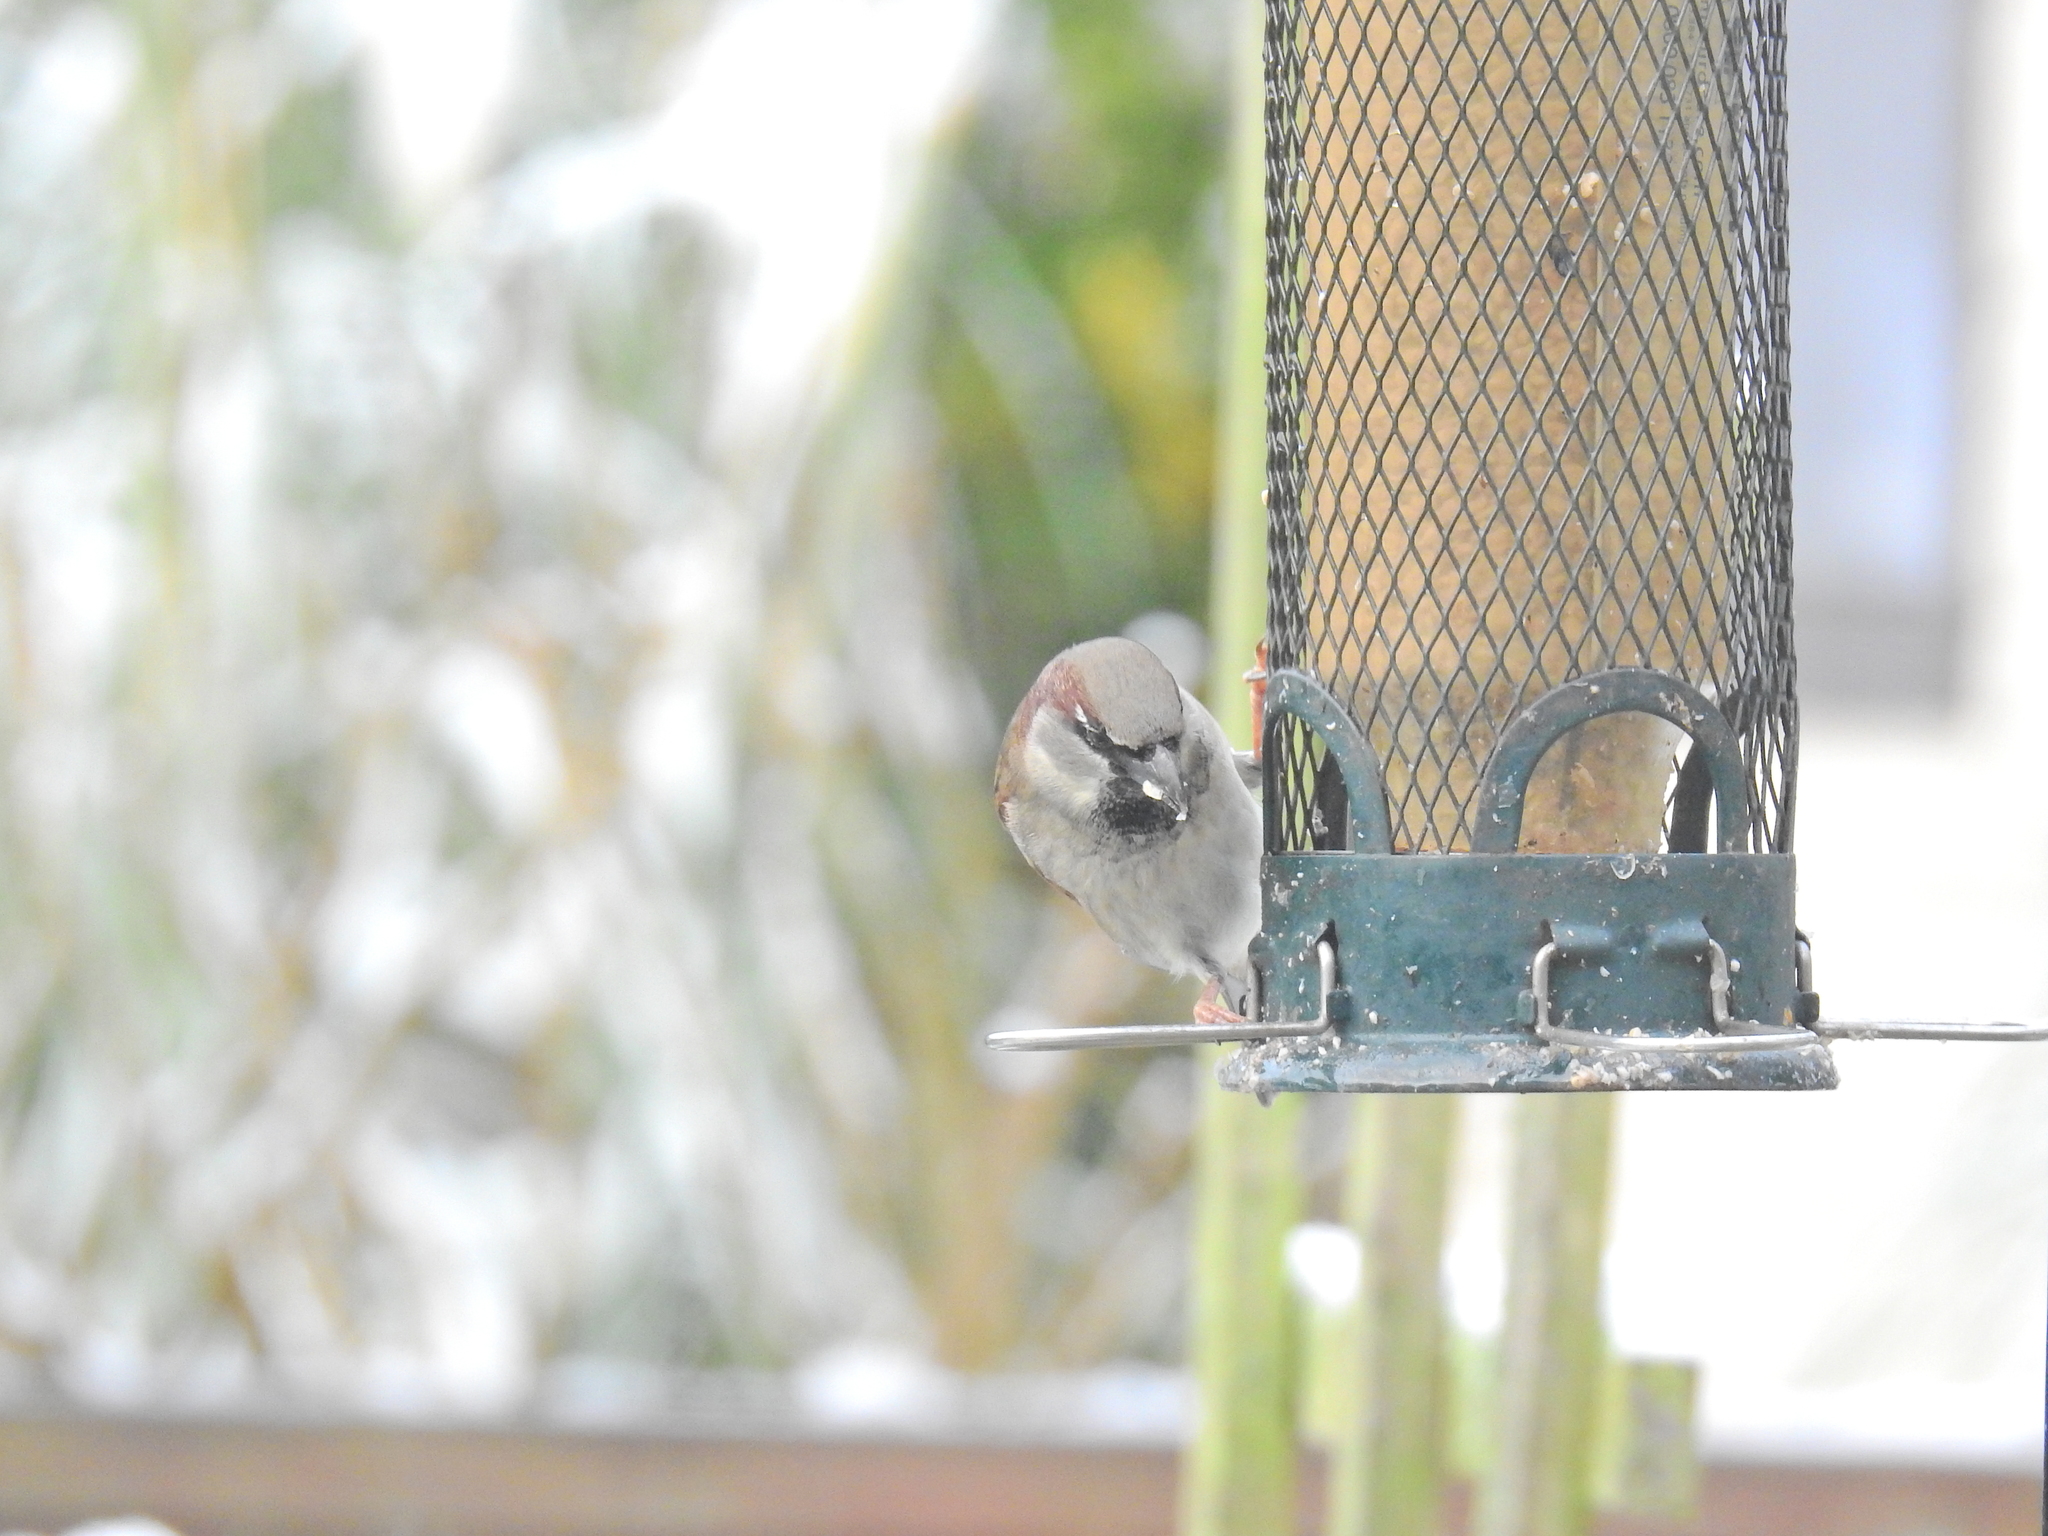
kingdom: Animalia
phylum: Chordata
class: Aves
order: Passeriformes
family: Passeridae
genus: Passer
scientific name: Passer domesticus
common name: House sparrow
